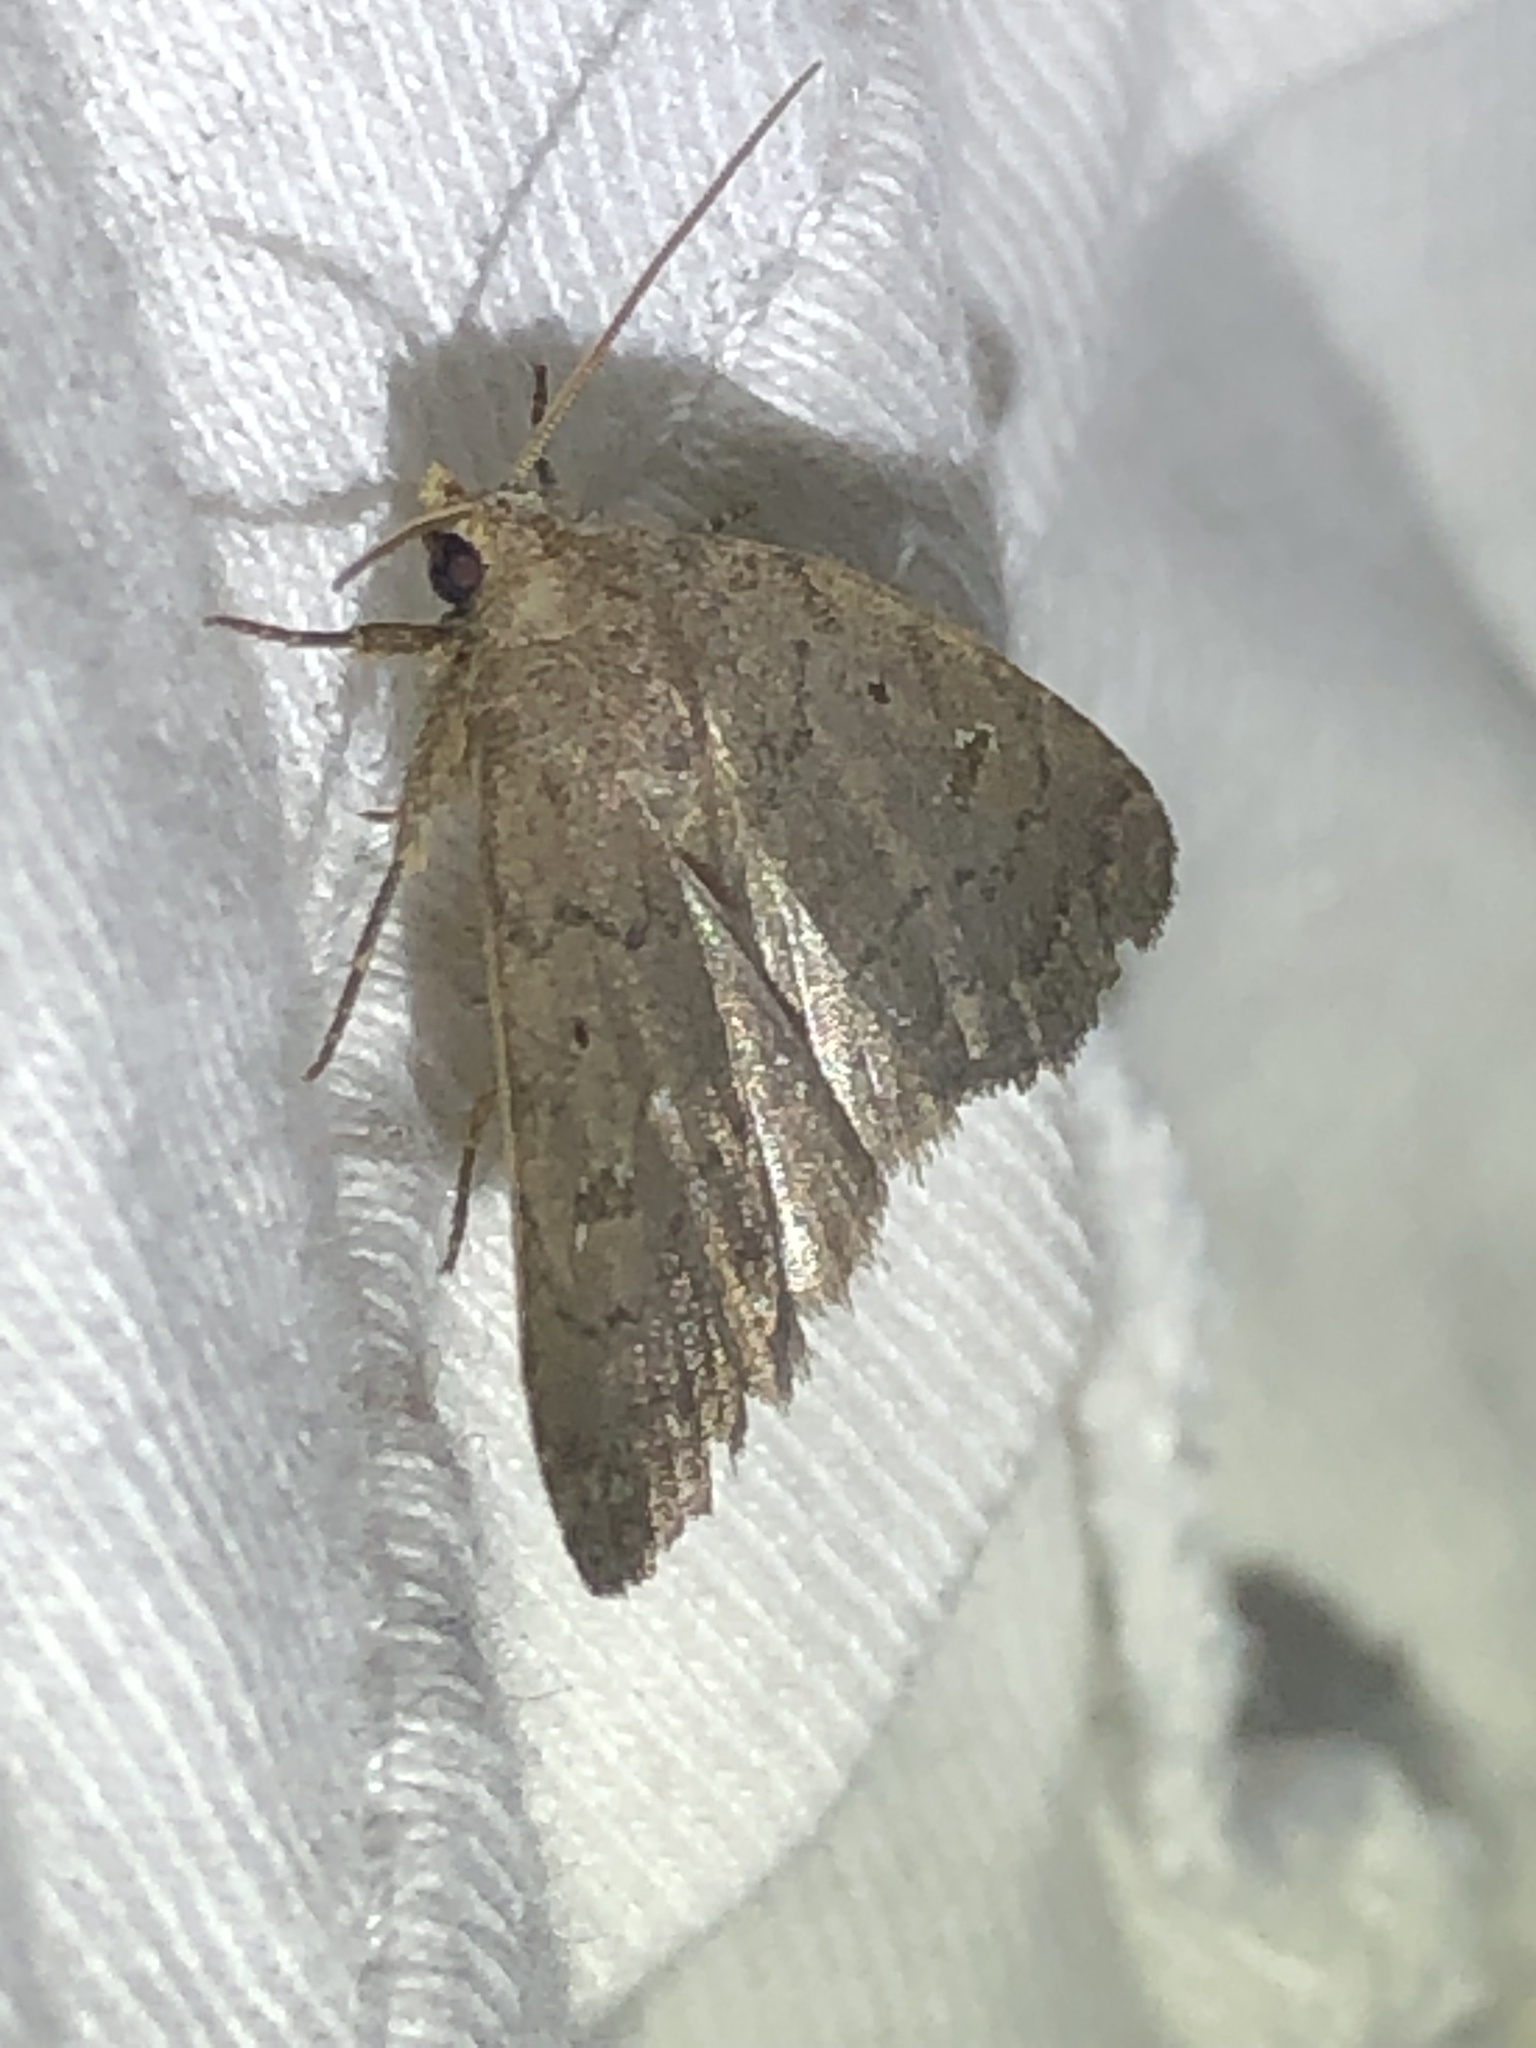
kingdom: Animalia
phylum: Arthropoda
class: Insecta
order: Lepidoptera
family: Noctuidae
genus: Athetis
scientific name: Athetis tarda
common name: Slowpoke moth
